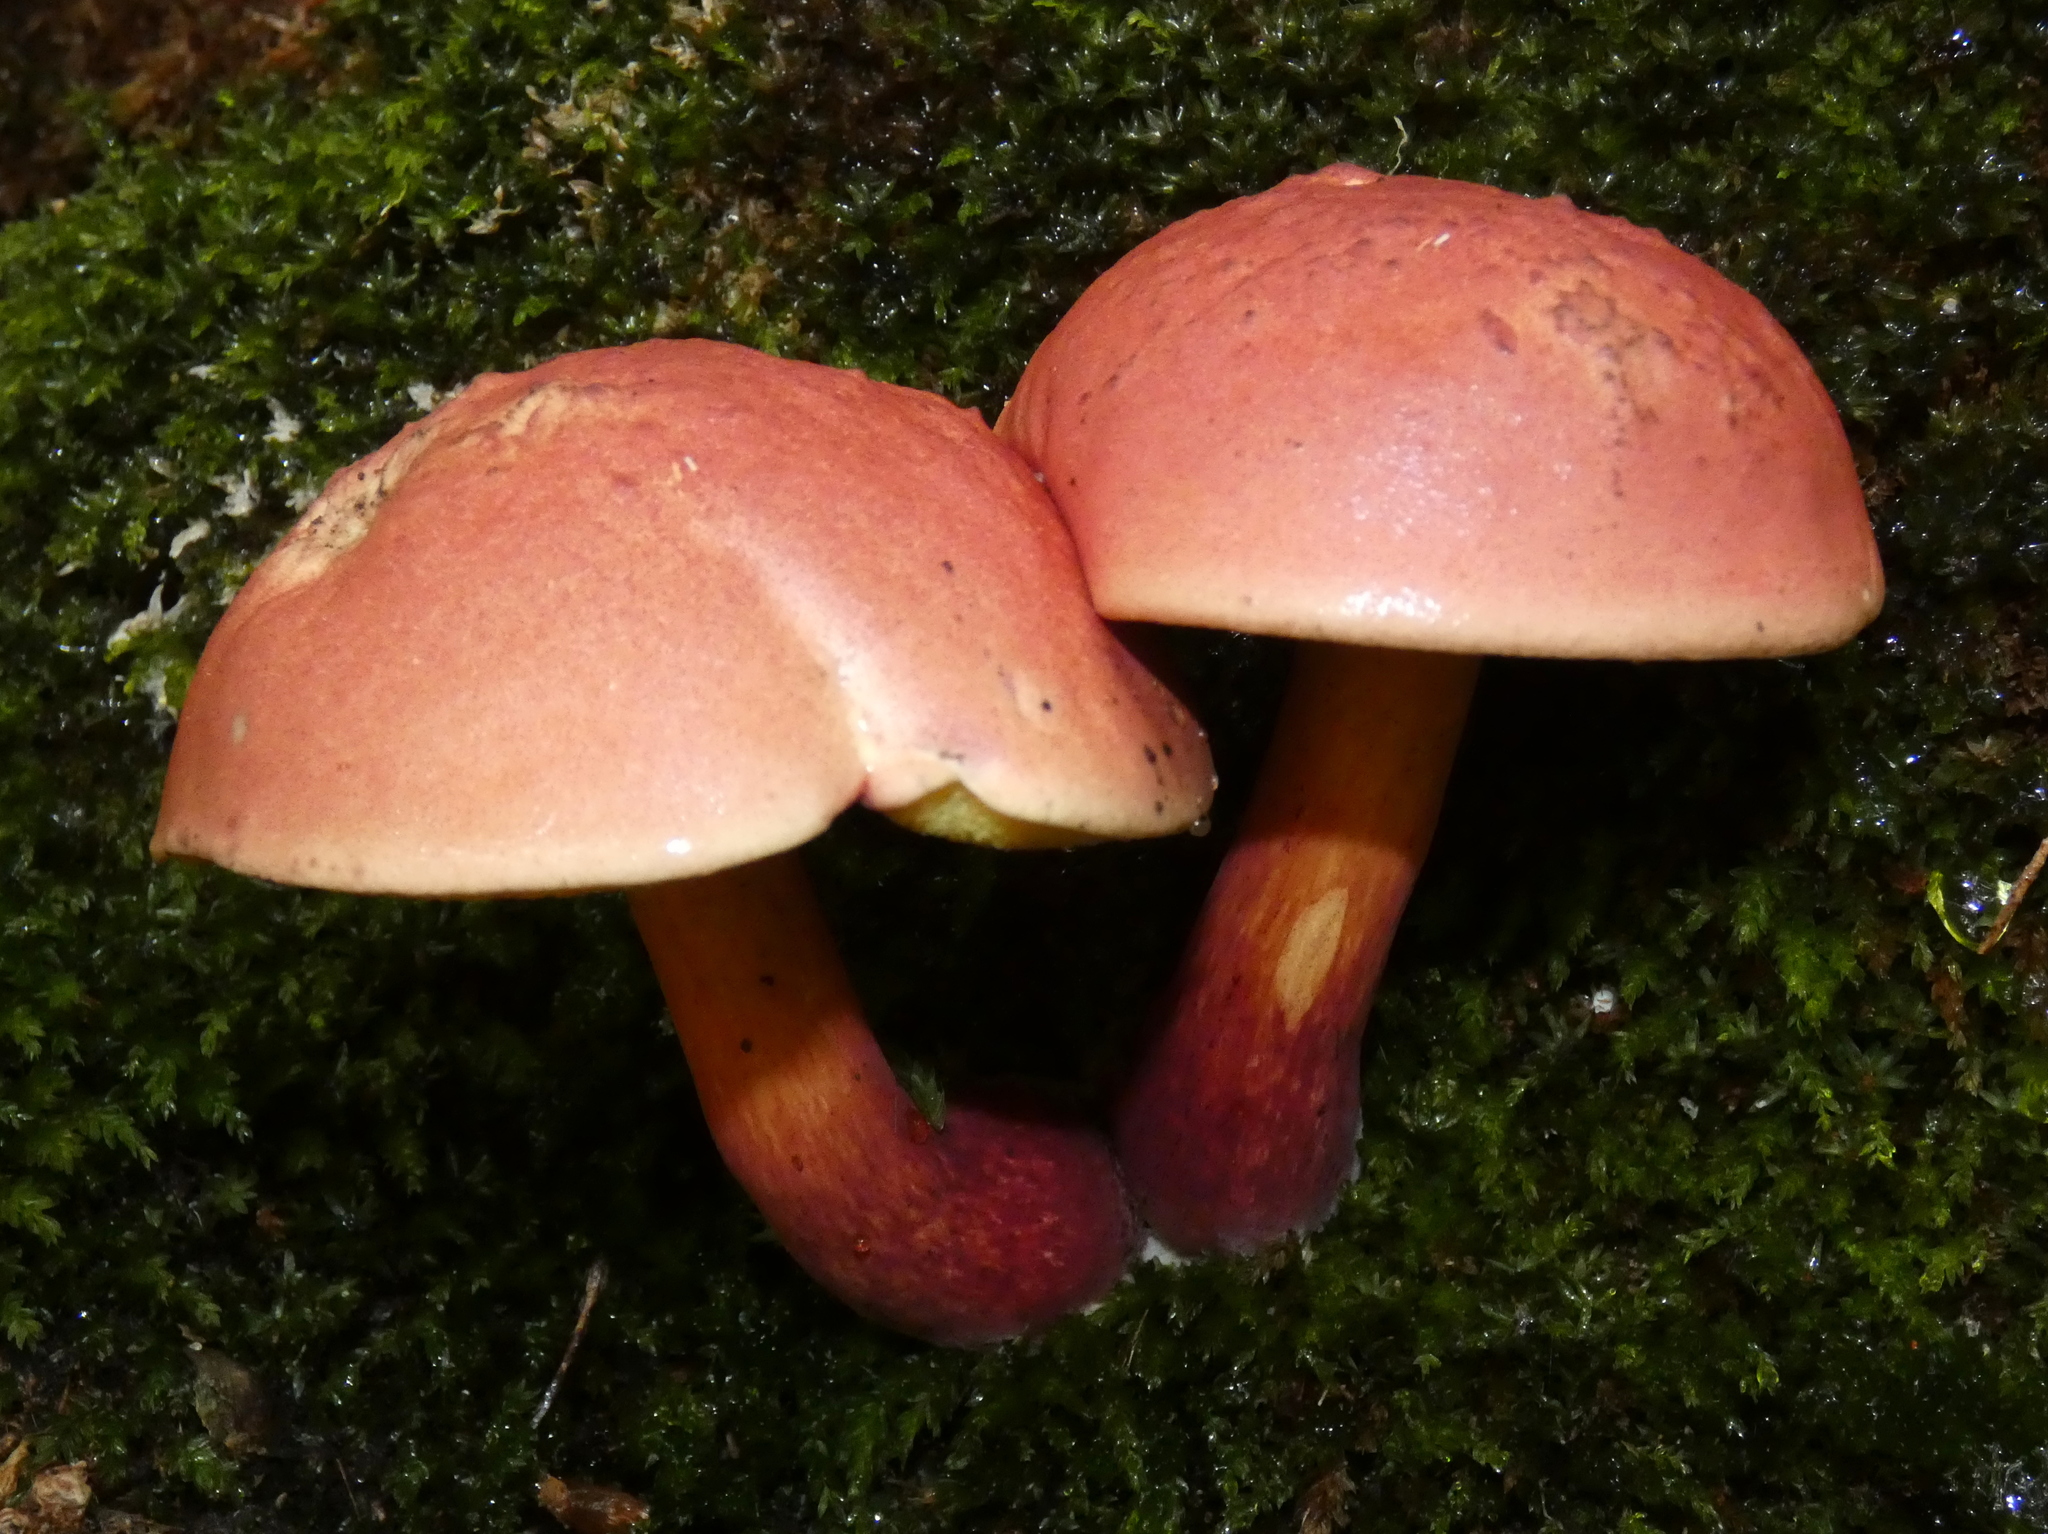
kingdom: Fungi
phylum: Basidiomycota
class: Agaricomycetes
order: Boletales
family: Boletaceae
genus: Baorangia
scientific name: Baorangia bicolor
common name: Two-colored bolete
